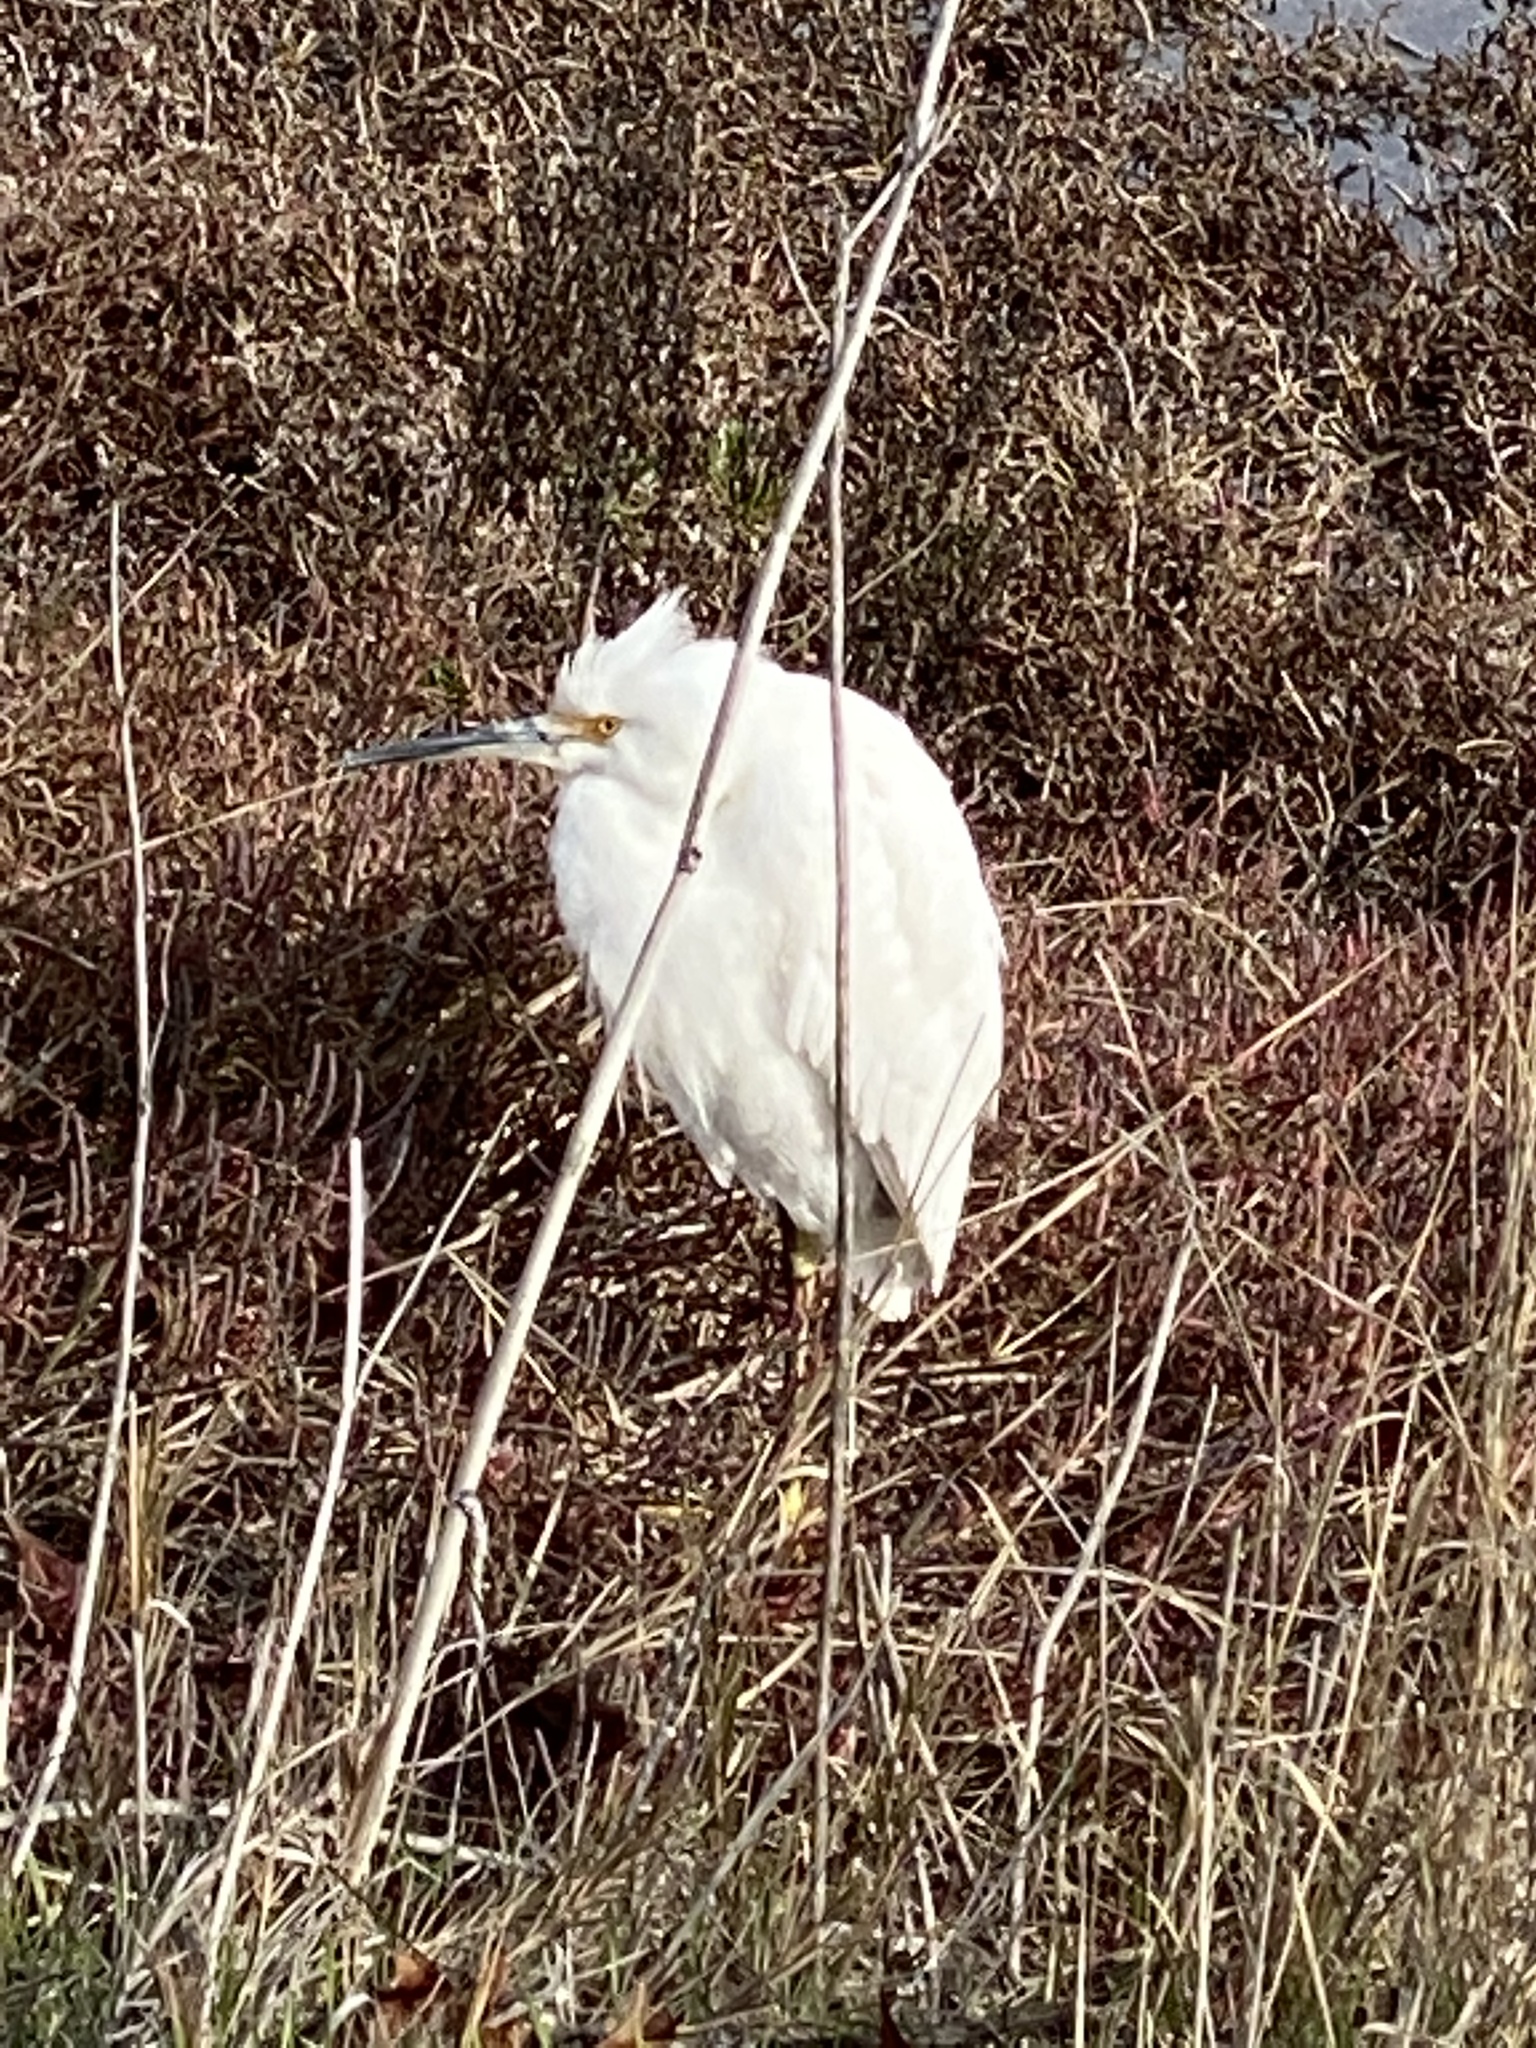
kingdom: Animalia
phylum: Chordata
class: Aves
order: Pelecaniformes
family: Ardeidae
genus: Egretta
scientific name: Egretta thula
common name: Snowy egret
